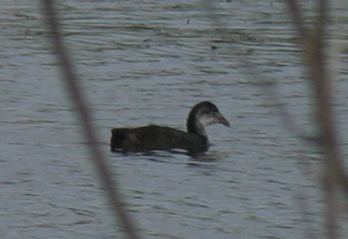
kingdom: Animalia
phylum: Chordata
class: Aves
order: Gruiformes
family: Rallidae
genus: Gallinula
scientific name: Gallinula chloropus
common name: Common moorhen
